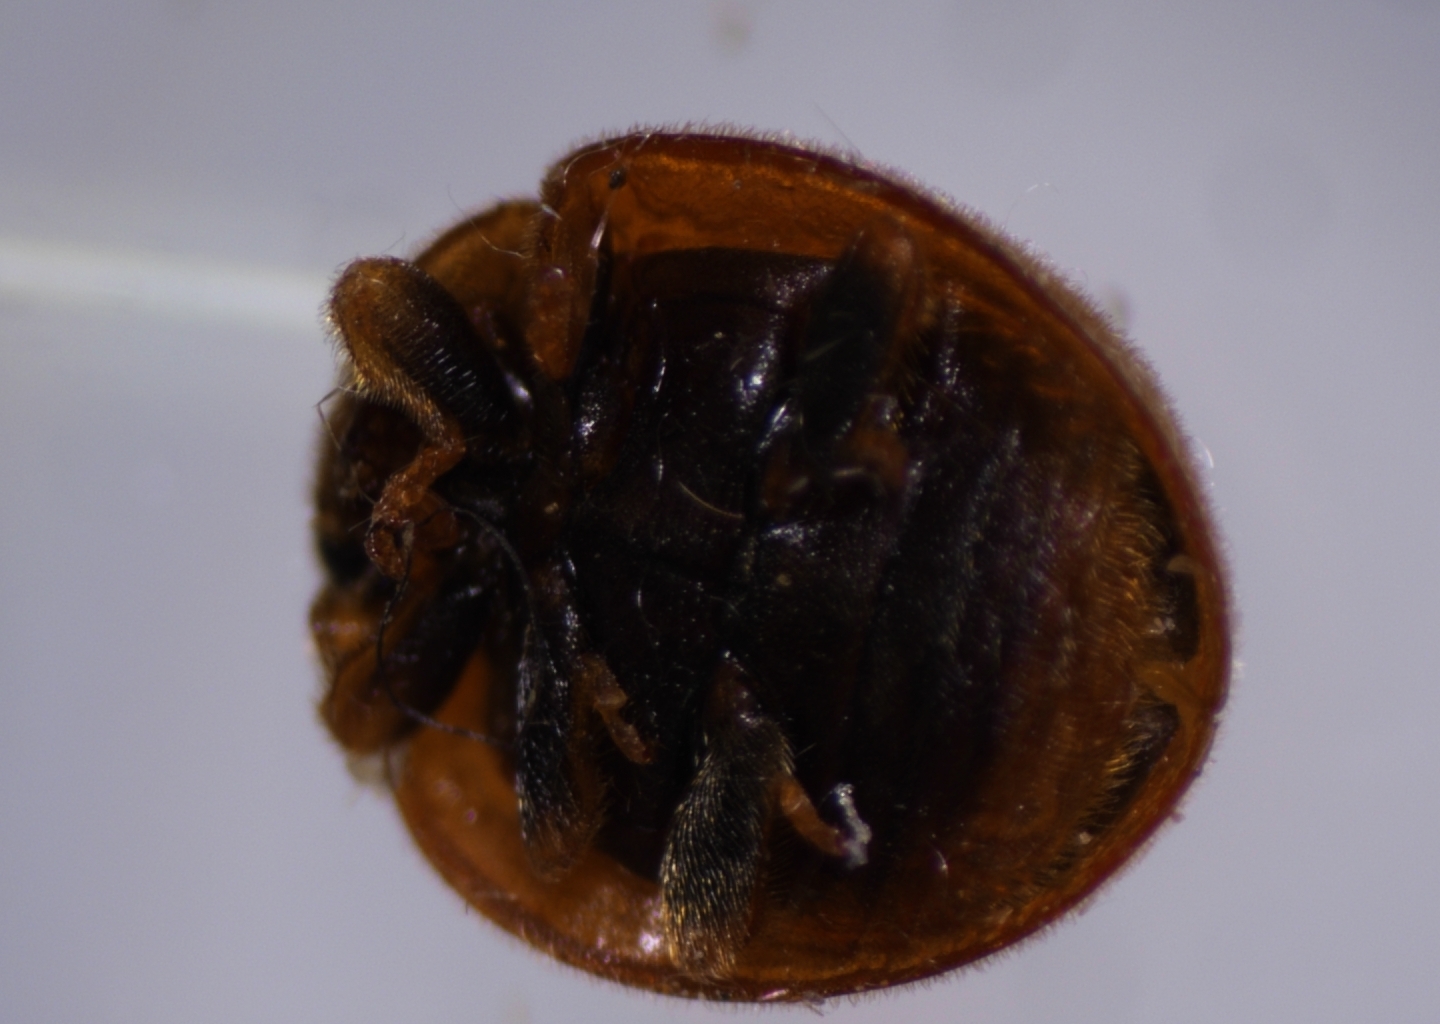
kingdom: Animalia
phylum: Arthropoda
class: Insecta
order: Coleoptera
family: Coccinellidae
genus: Novius
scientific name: Novius pumilus
